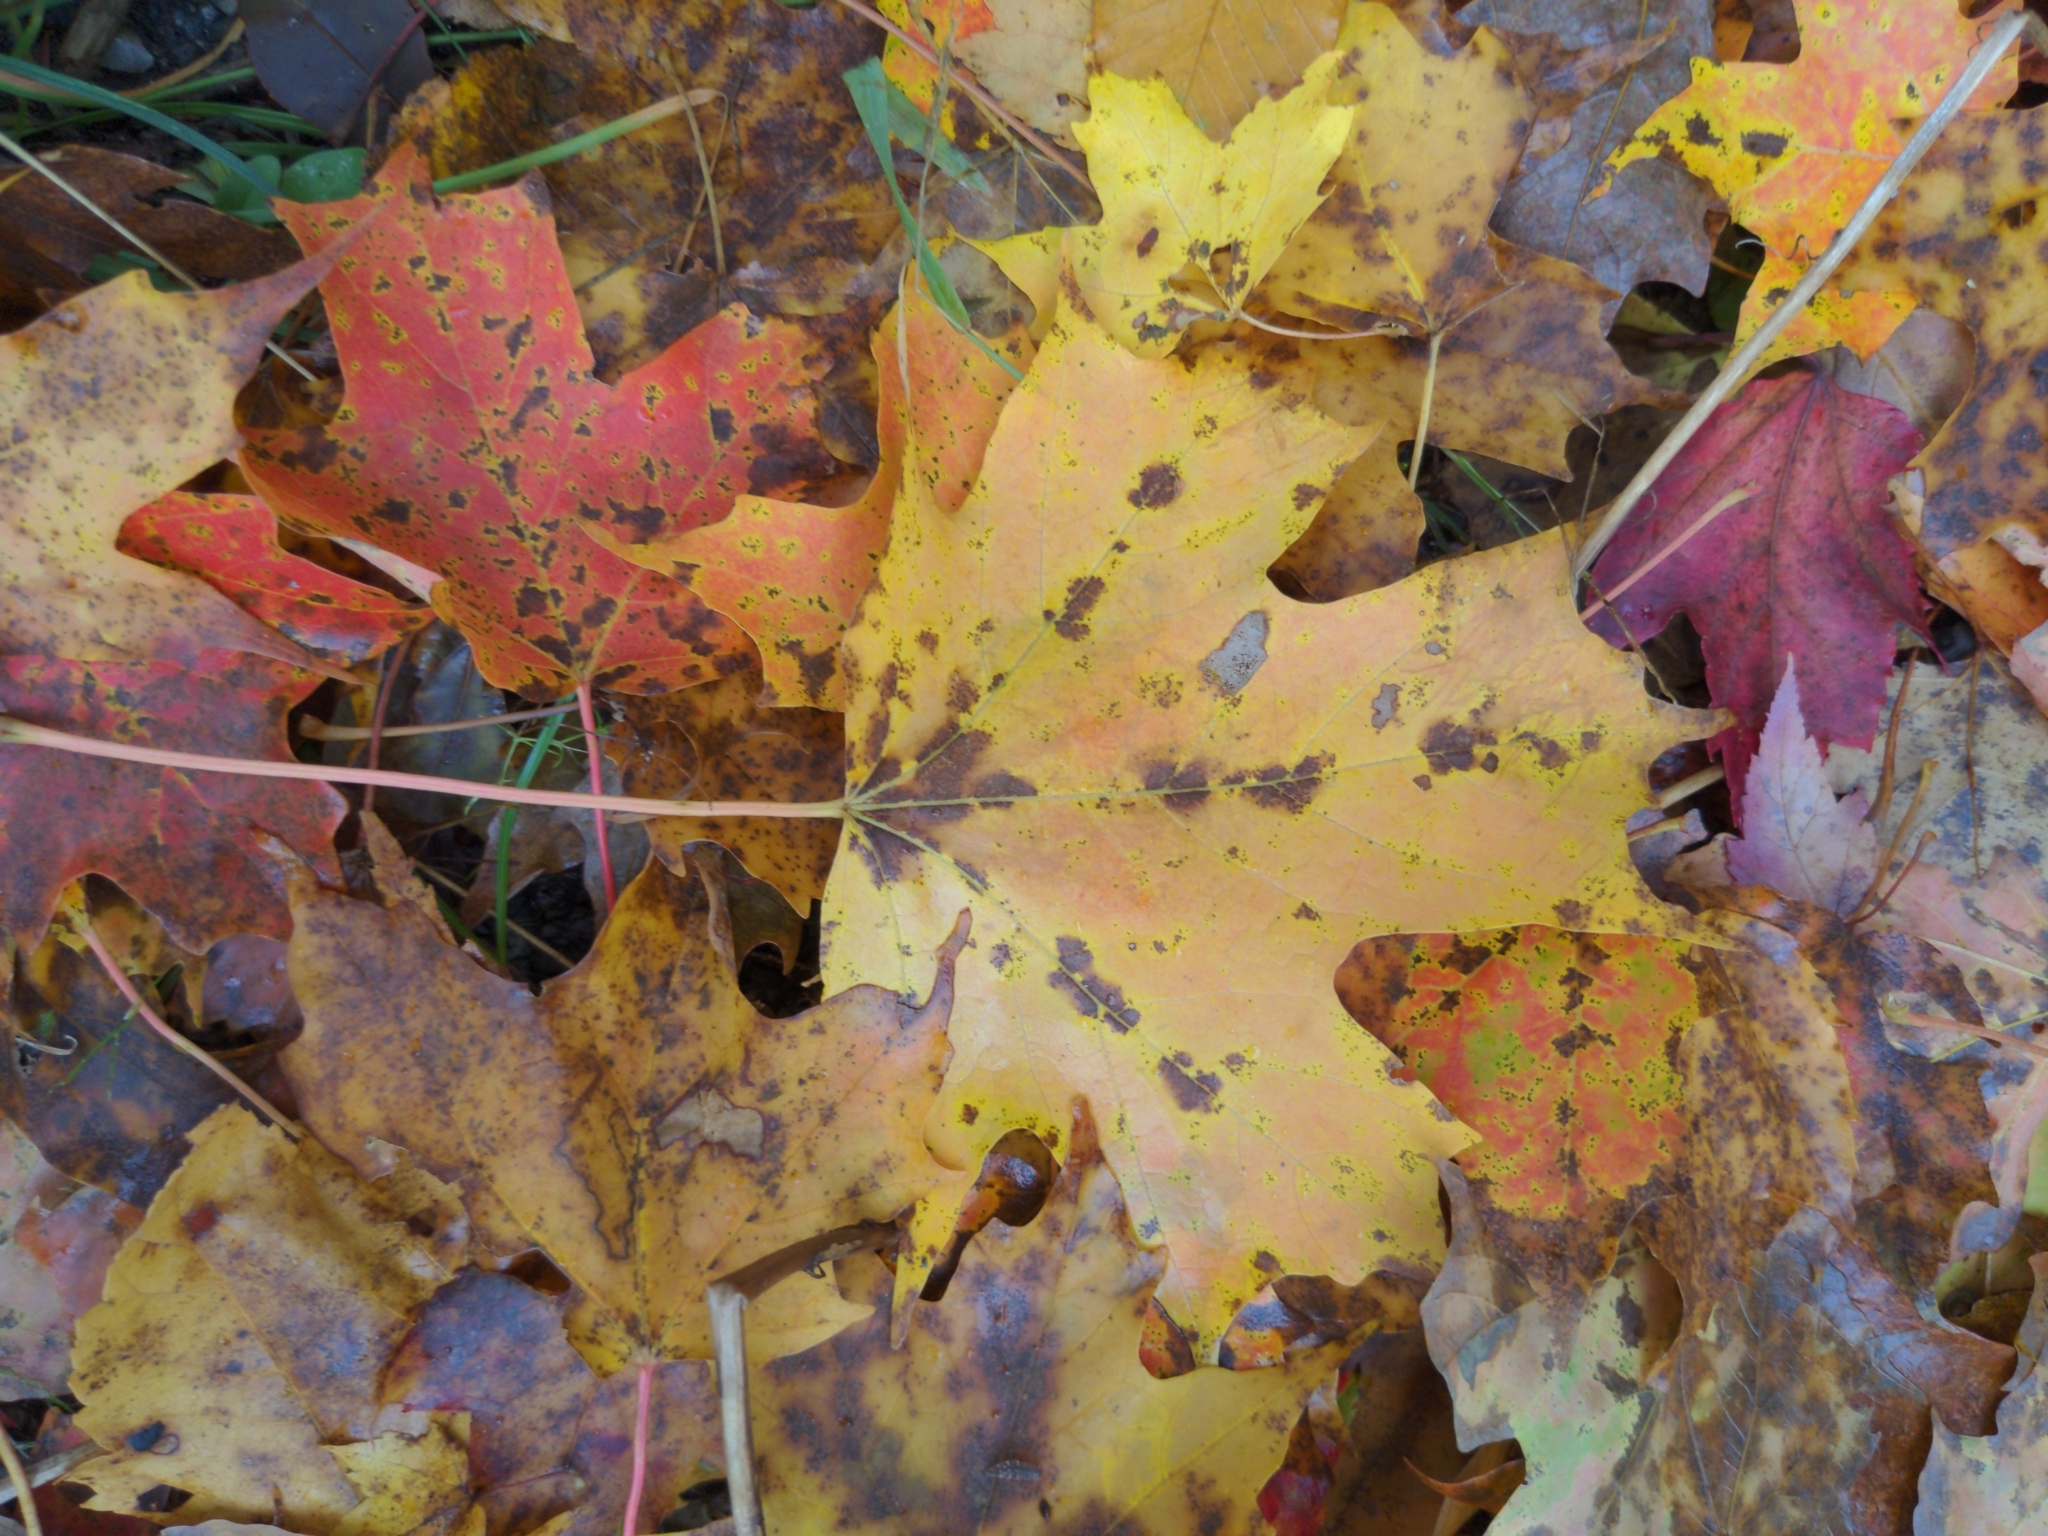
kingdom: Plantae
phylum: Tracheophyta
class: Magnoliopsida
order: Sapindales
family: Sapindaceae
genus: Acer
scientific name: Acer saccharum
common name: Sugar maple
